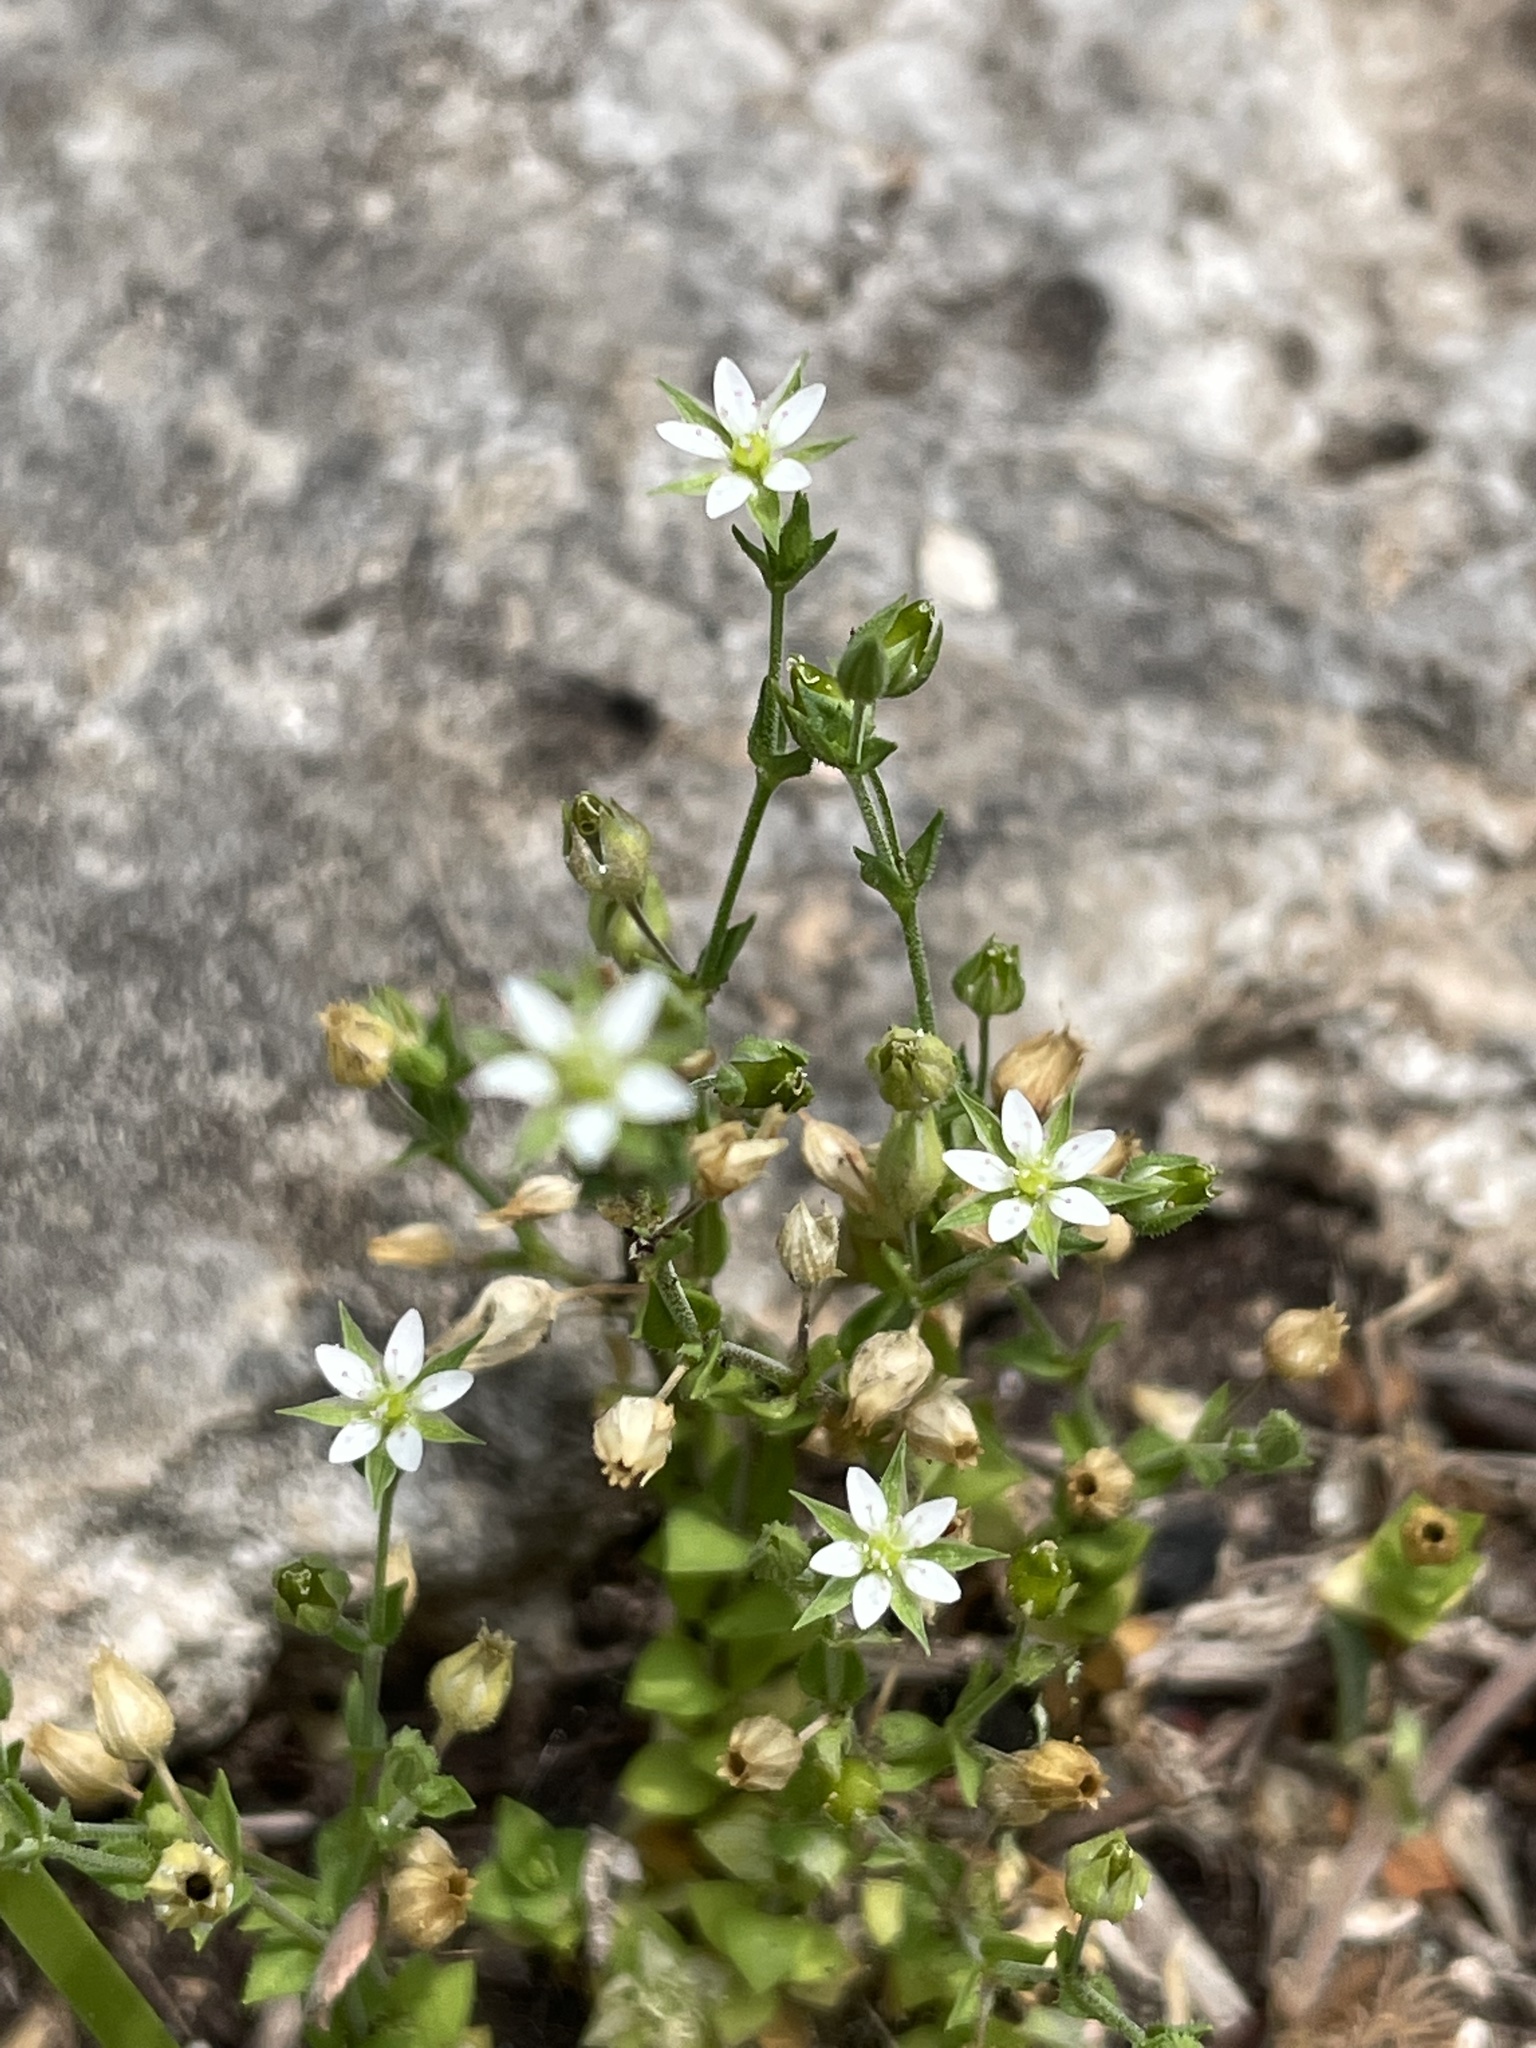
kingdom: Plantae
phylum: Tracheophyta
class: Magnoliopsida
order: Caryophyllales
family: Caryophyllaceae
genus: Arenaria
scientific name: Arenaria serpyllifolia
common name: Thyme-leaved sandwort
